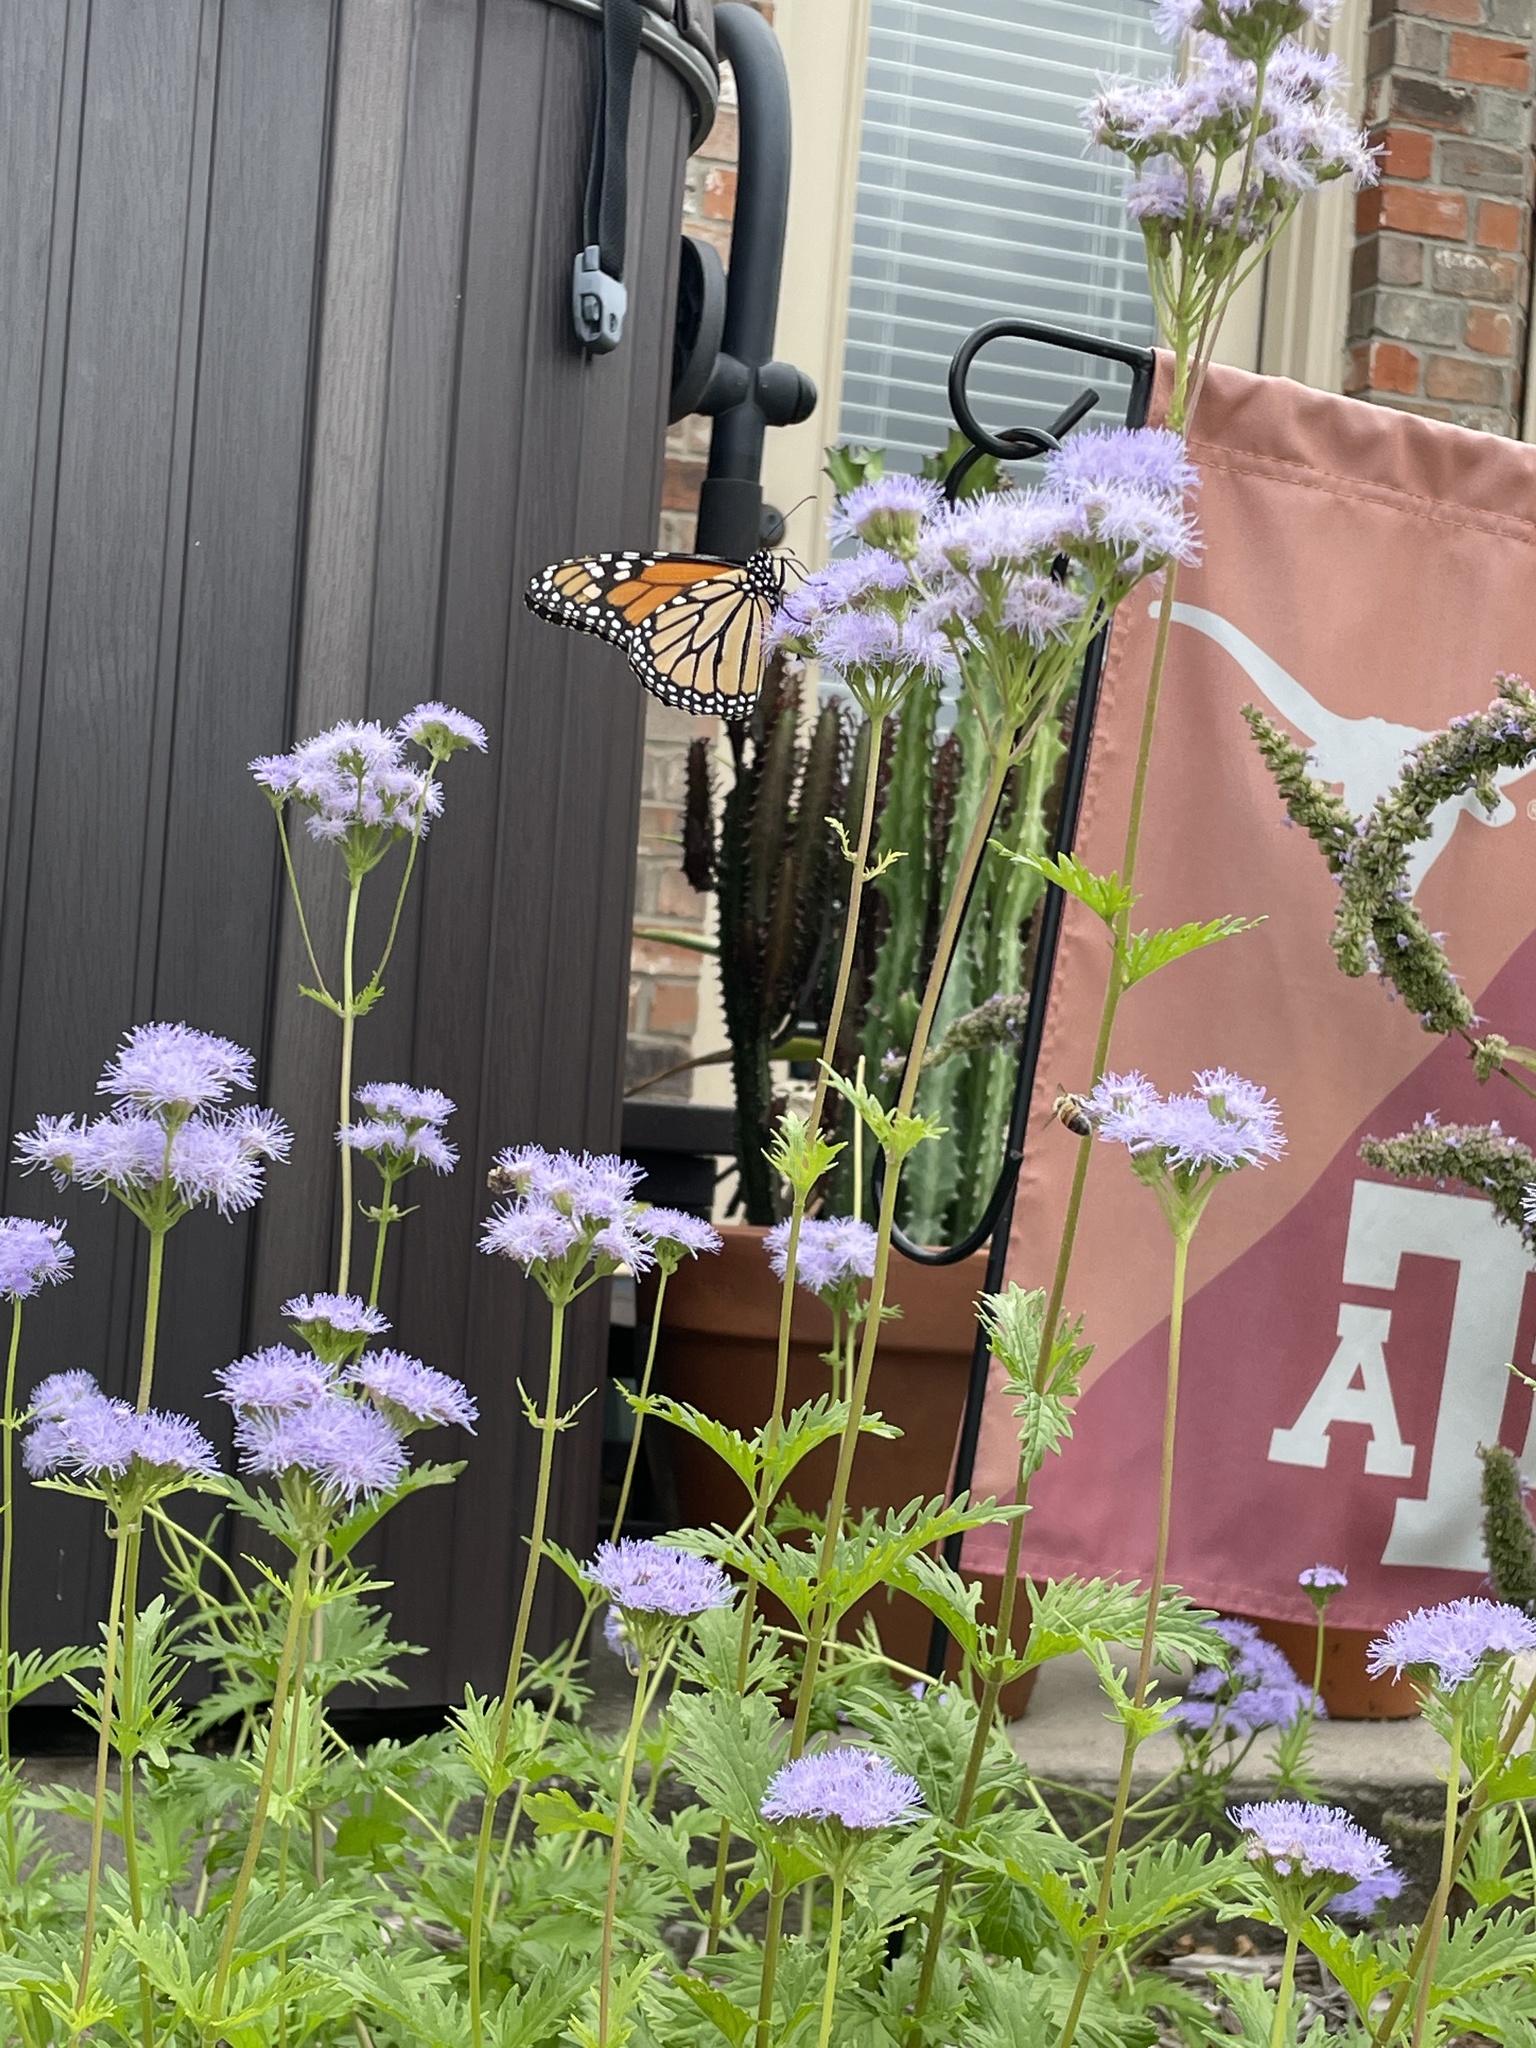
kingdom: Animalia
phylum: Arthropoda
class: Insecta
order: Lepidoptera
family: Nymphalidae
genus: Danaus
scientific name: Danaus plexippus
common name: Monarch
